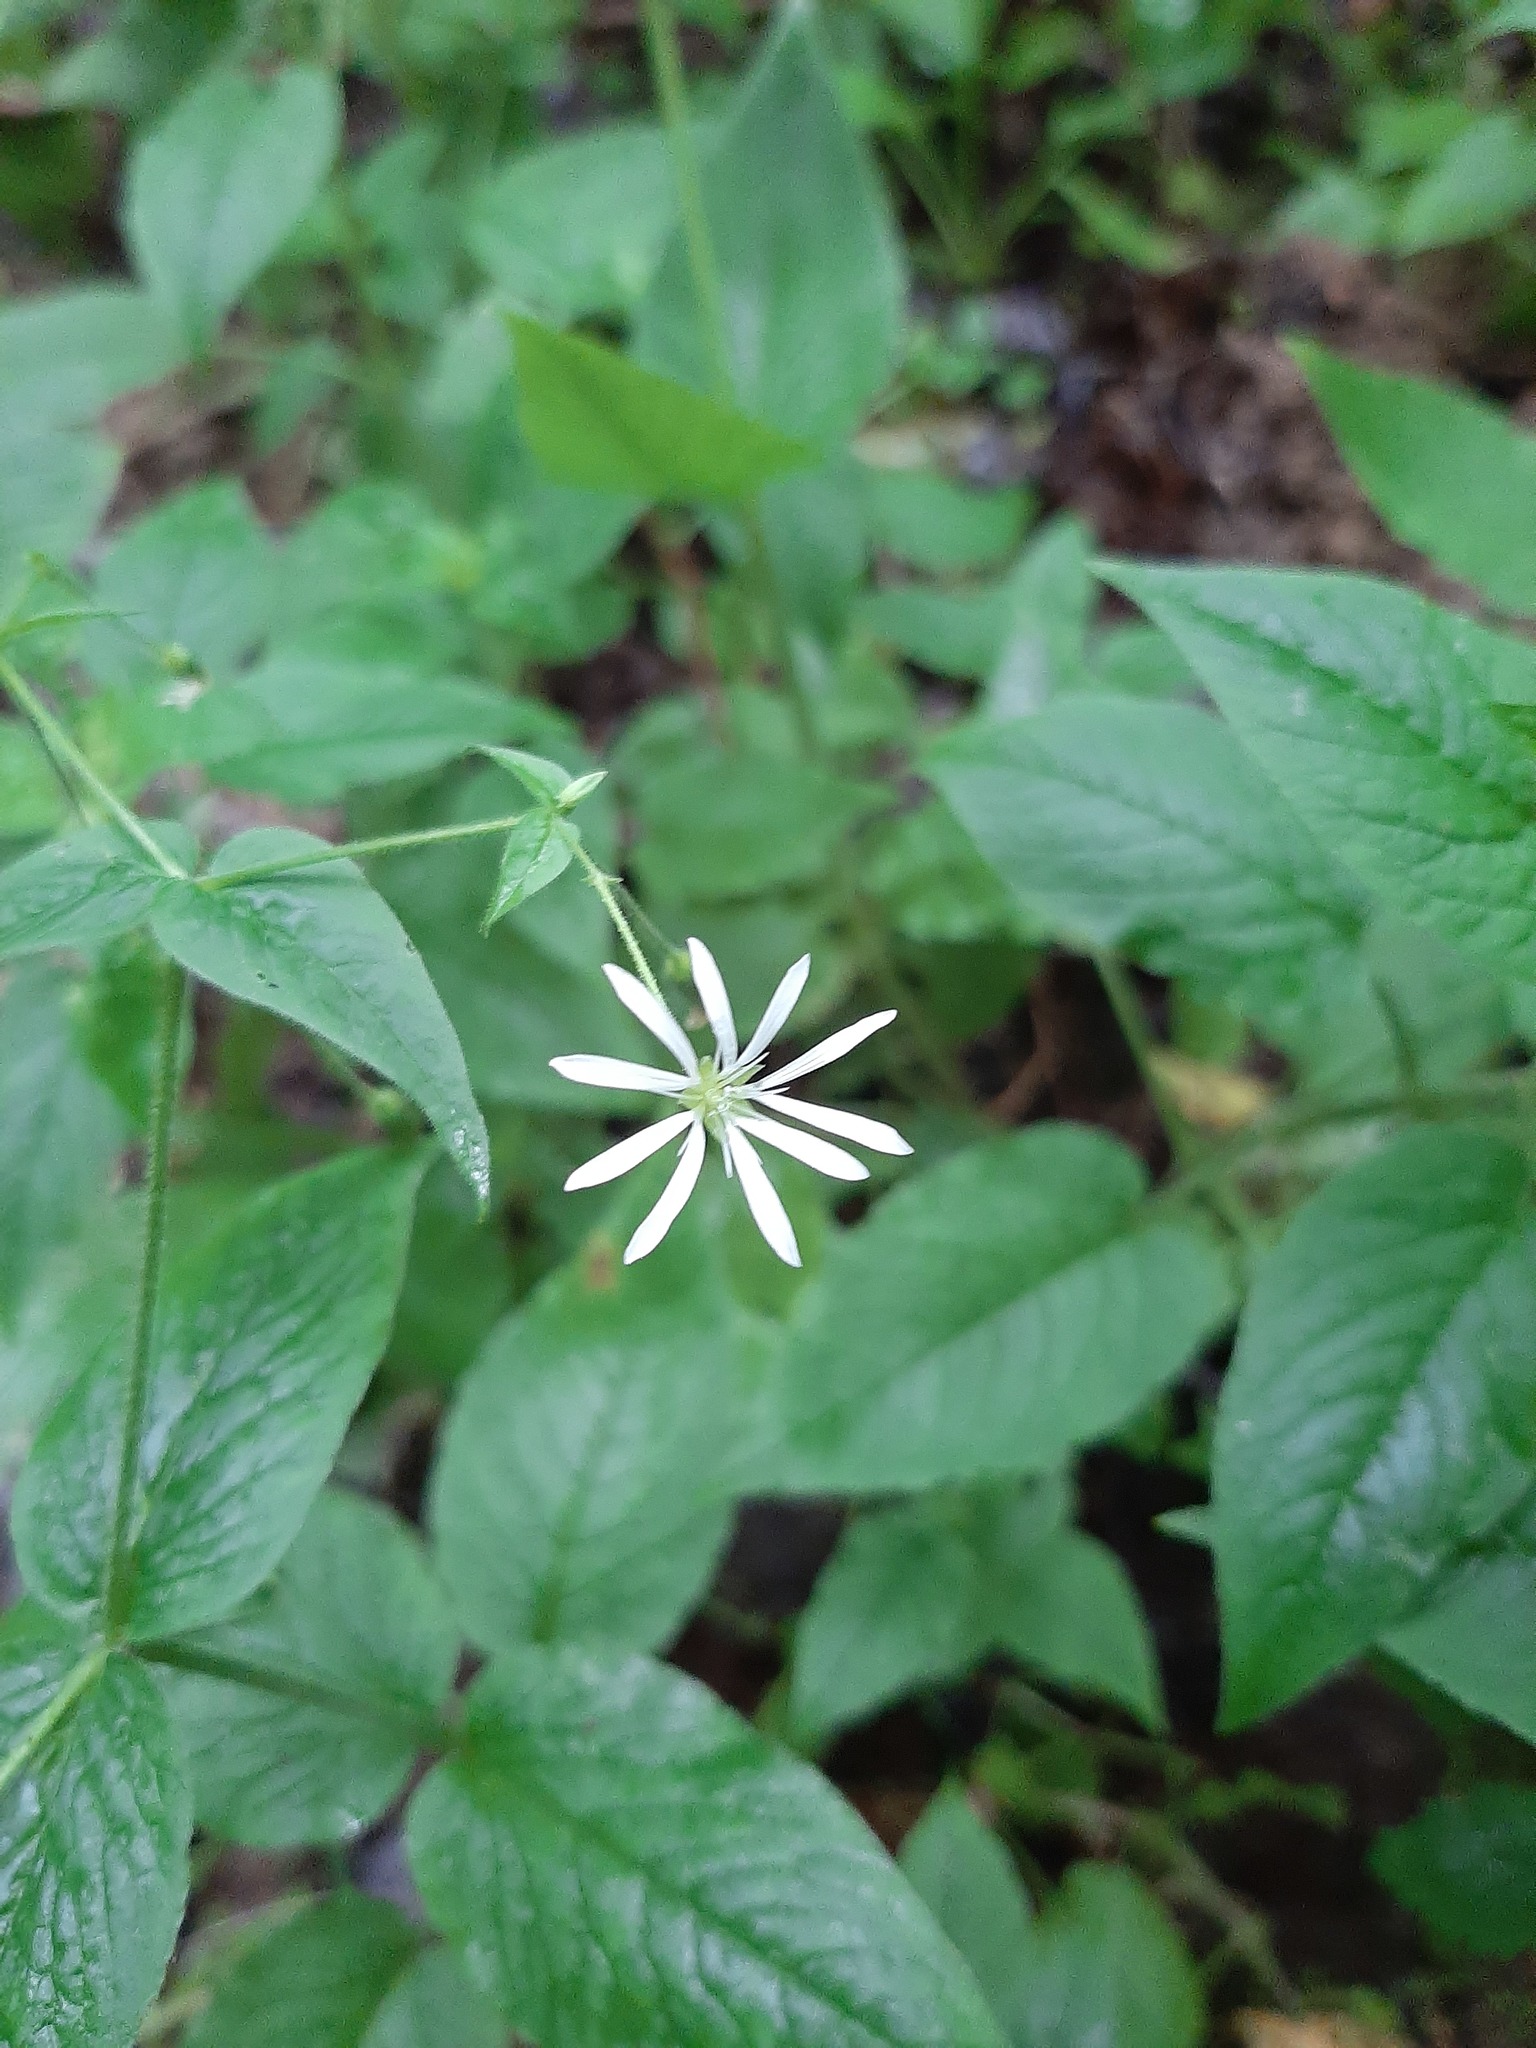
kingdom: Plantae
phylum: Tracheophyta
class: Magnoliopsida
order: Caryophyllales
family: Caryophyllaceae
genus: Stellaria
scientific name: Stellaria nemorum
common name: Wood stitchwort
